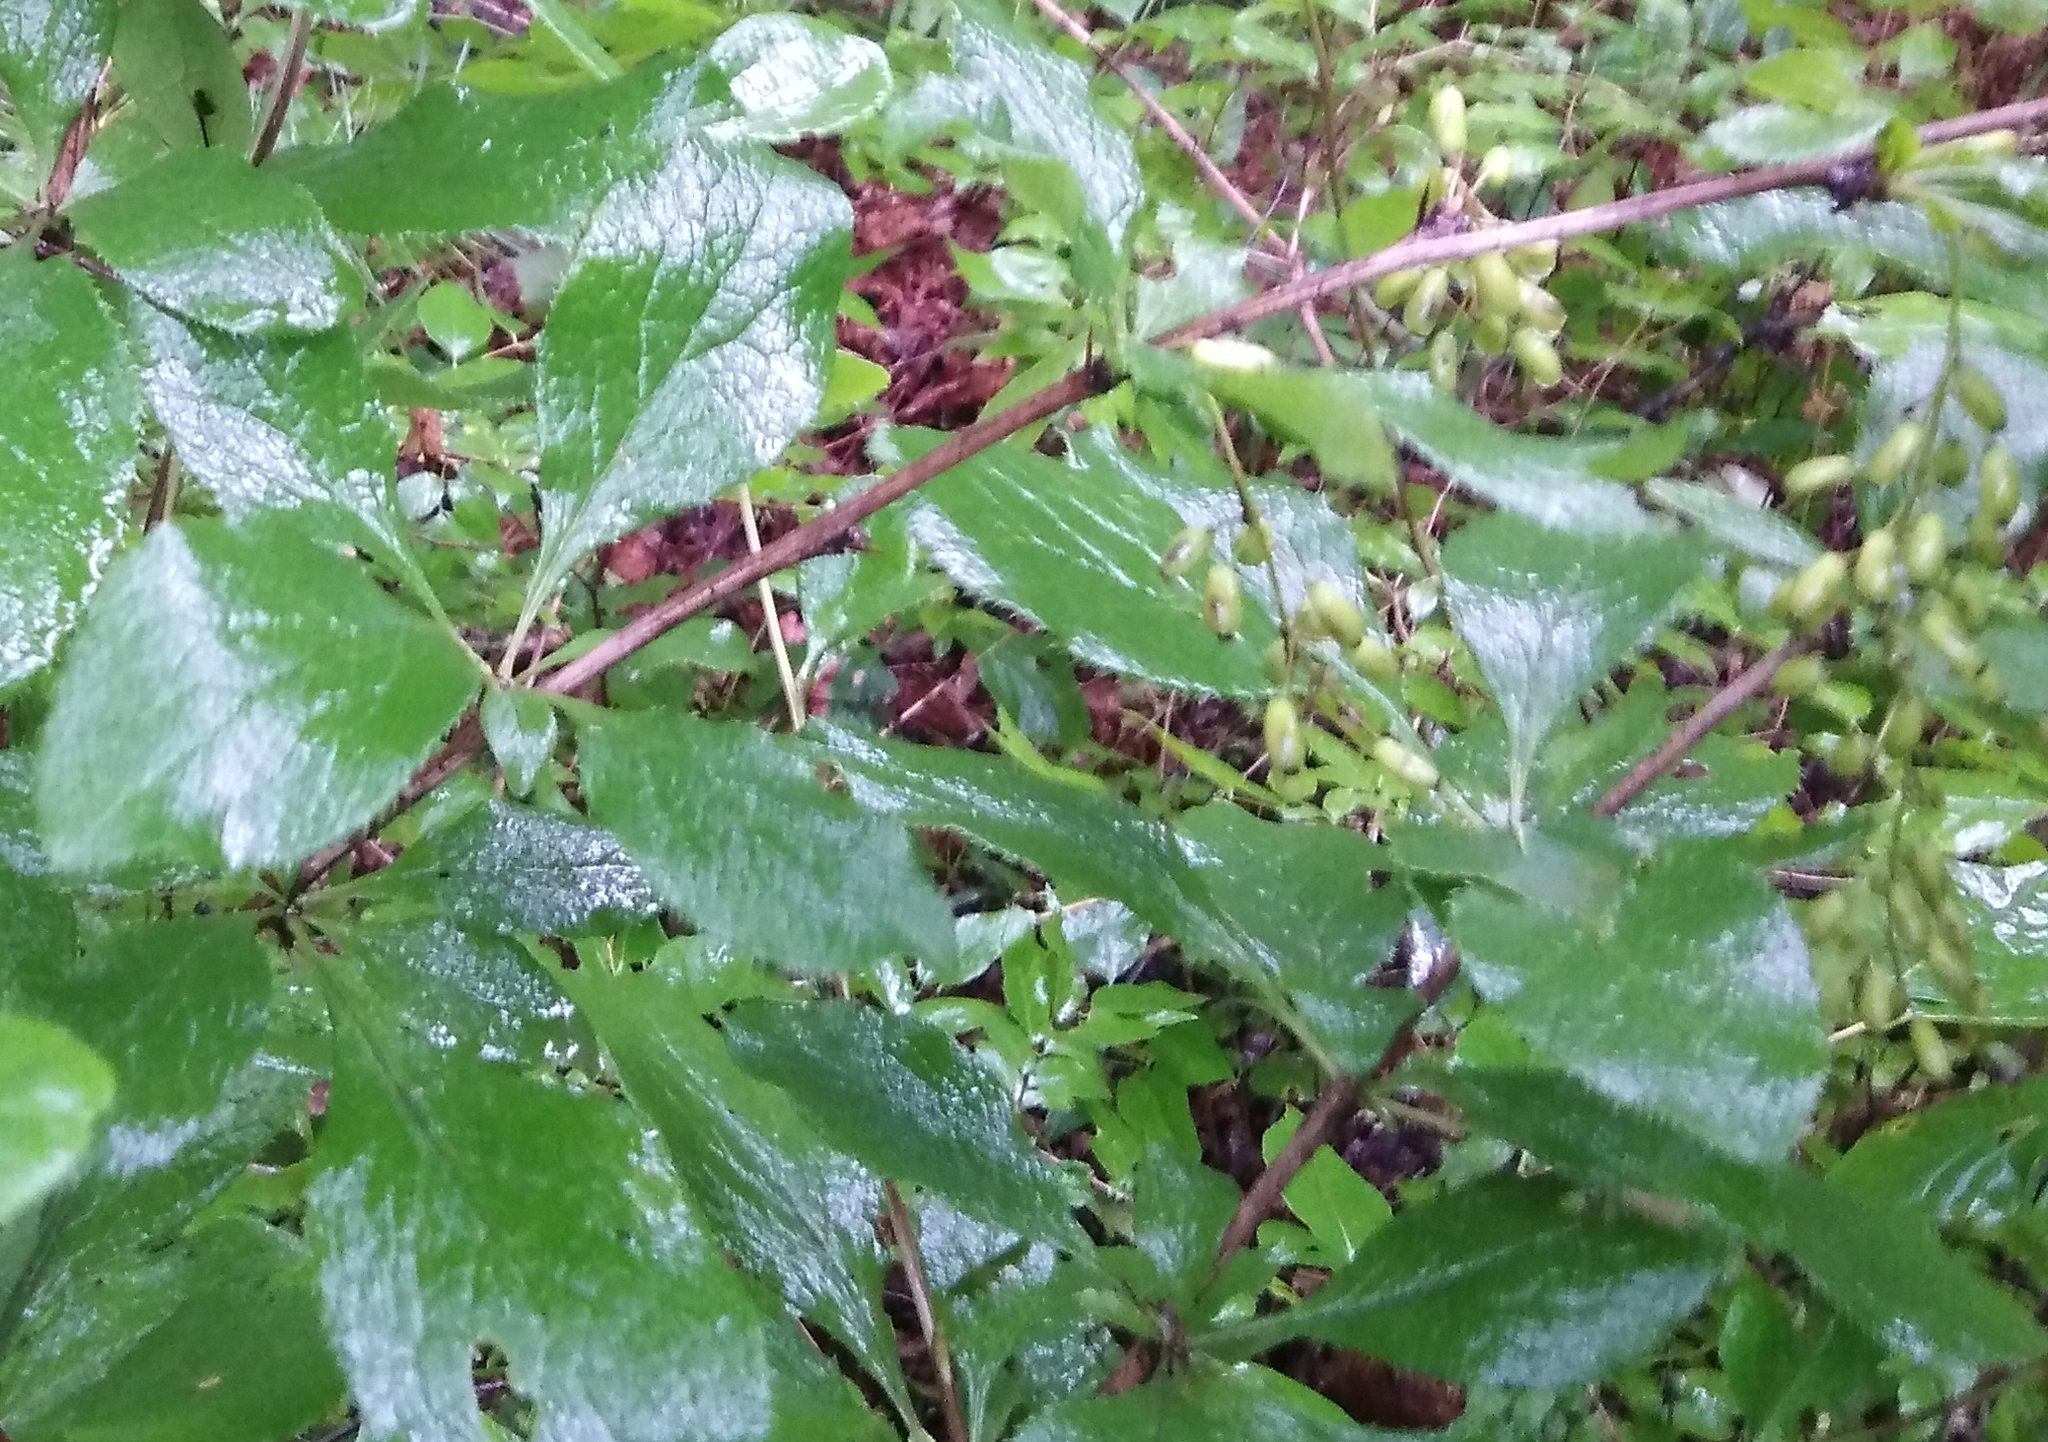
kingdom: Plantae
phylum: Tracheophyta
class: Magnoliopsida
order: Ranunculales
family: Berberidaceae
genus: Berberis
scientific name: Berberis amurensis
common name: Amur barberry
